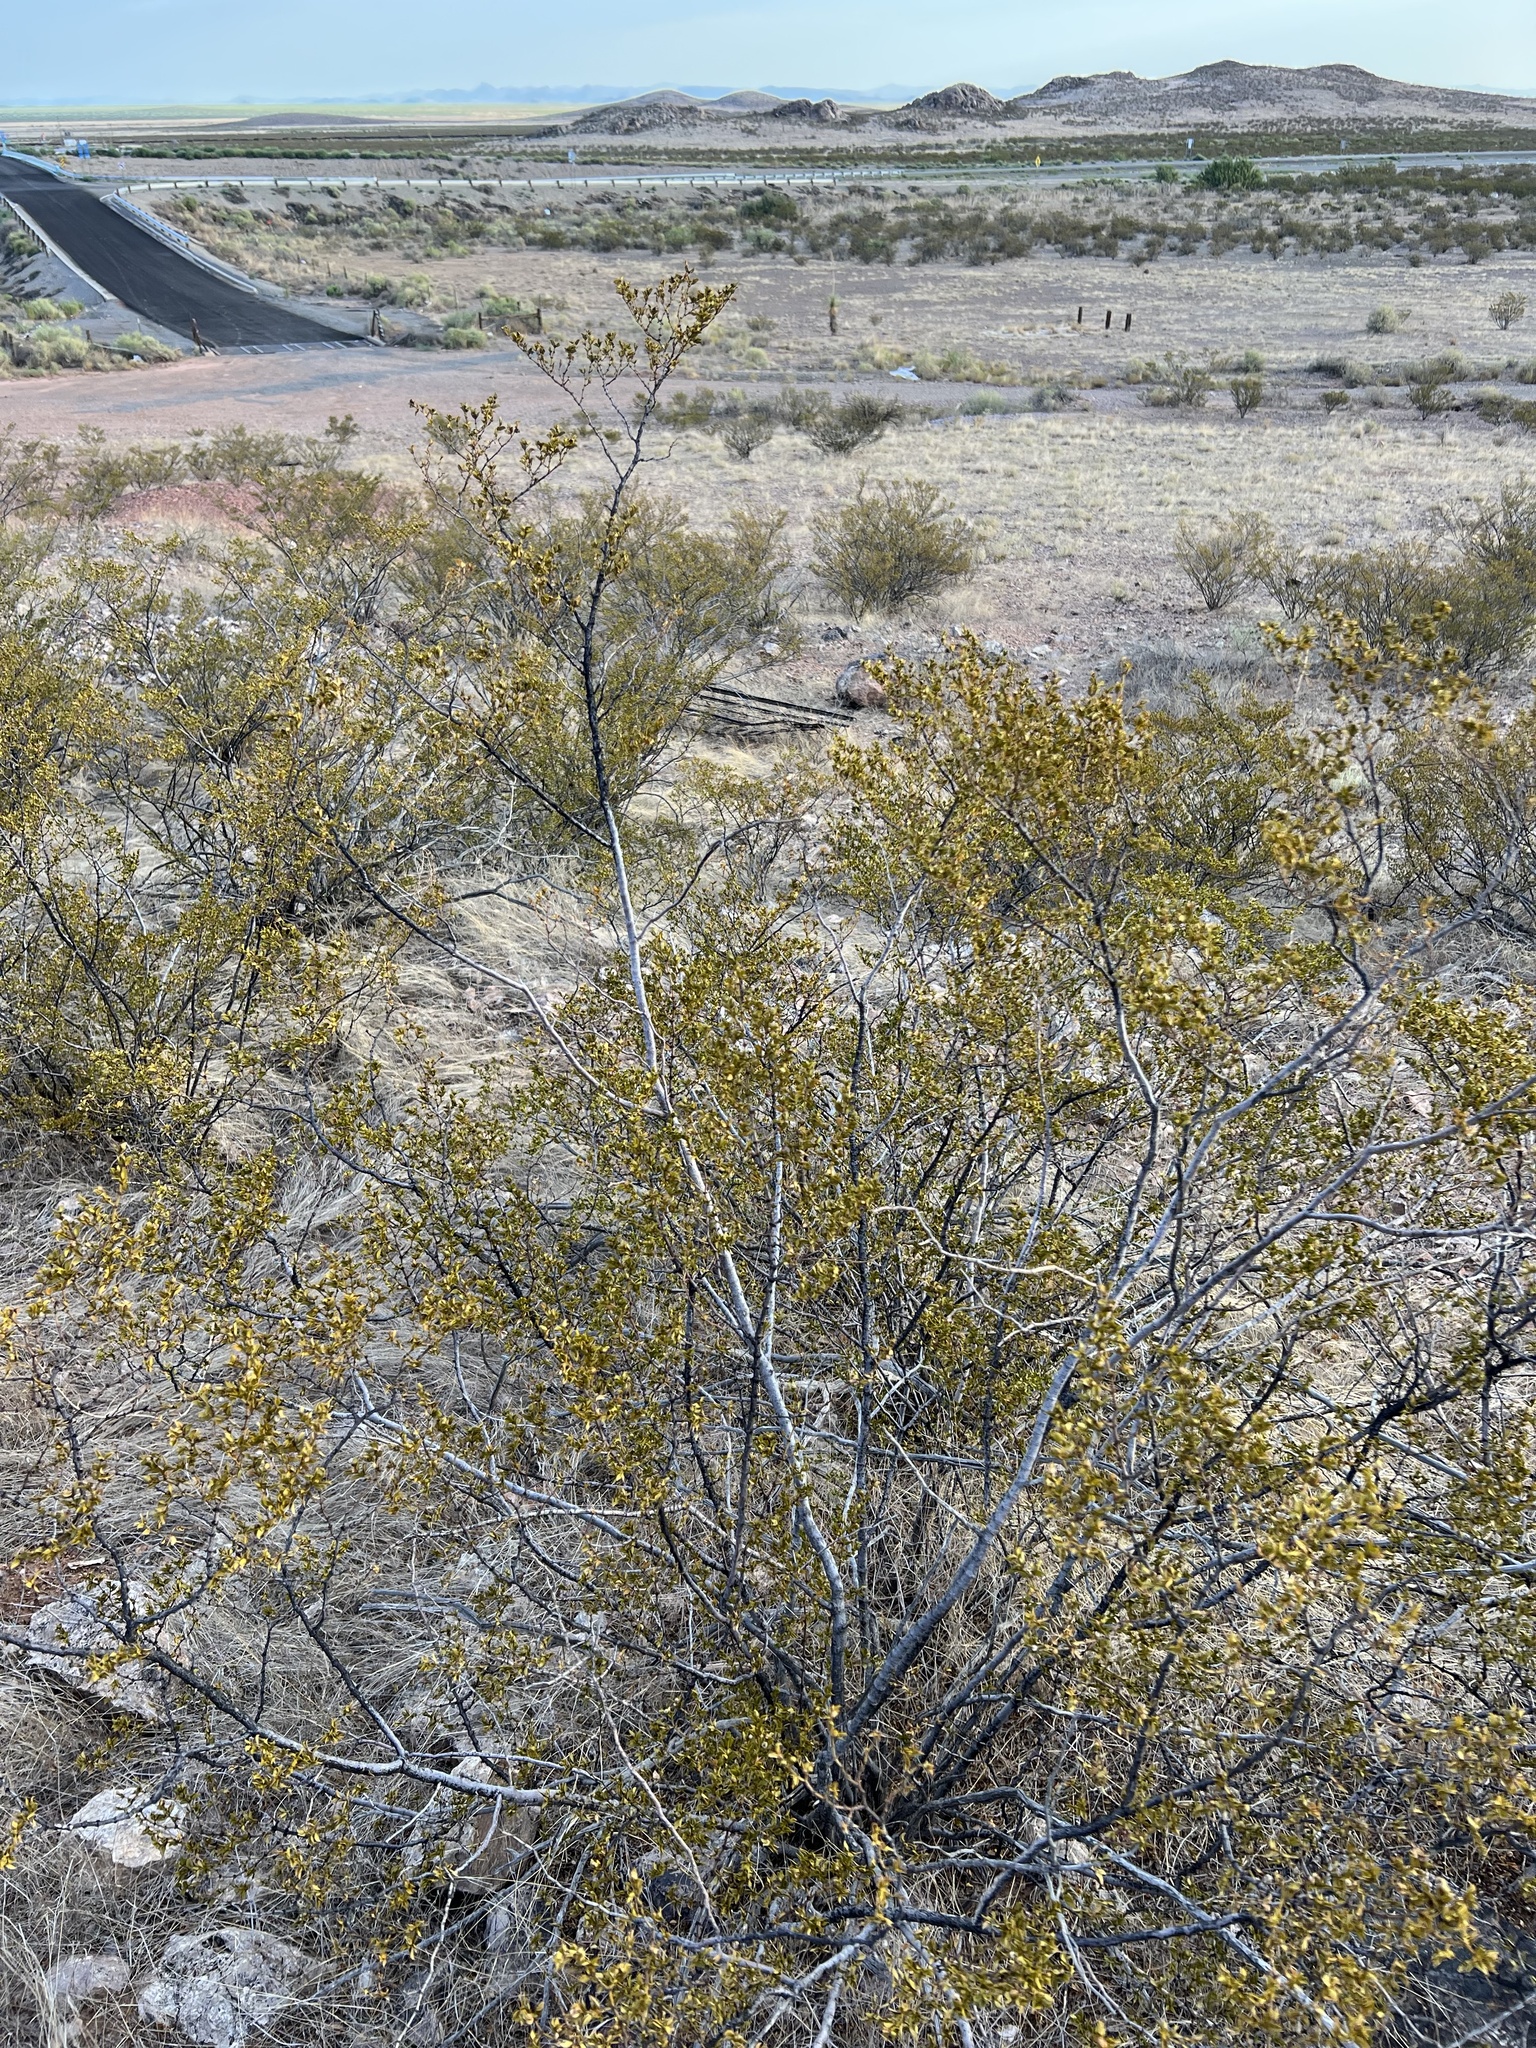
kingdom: Plantae
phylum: Tracheophyta
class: Magnoliopsida
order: Zygophyllales
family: Zygophyllaceae
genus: Larrea
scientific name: Larrea tridentata
